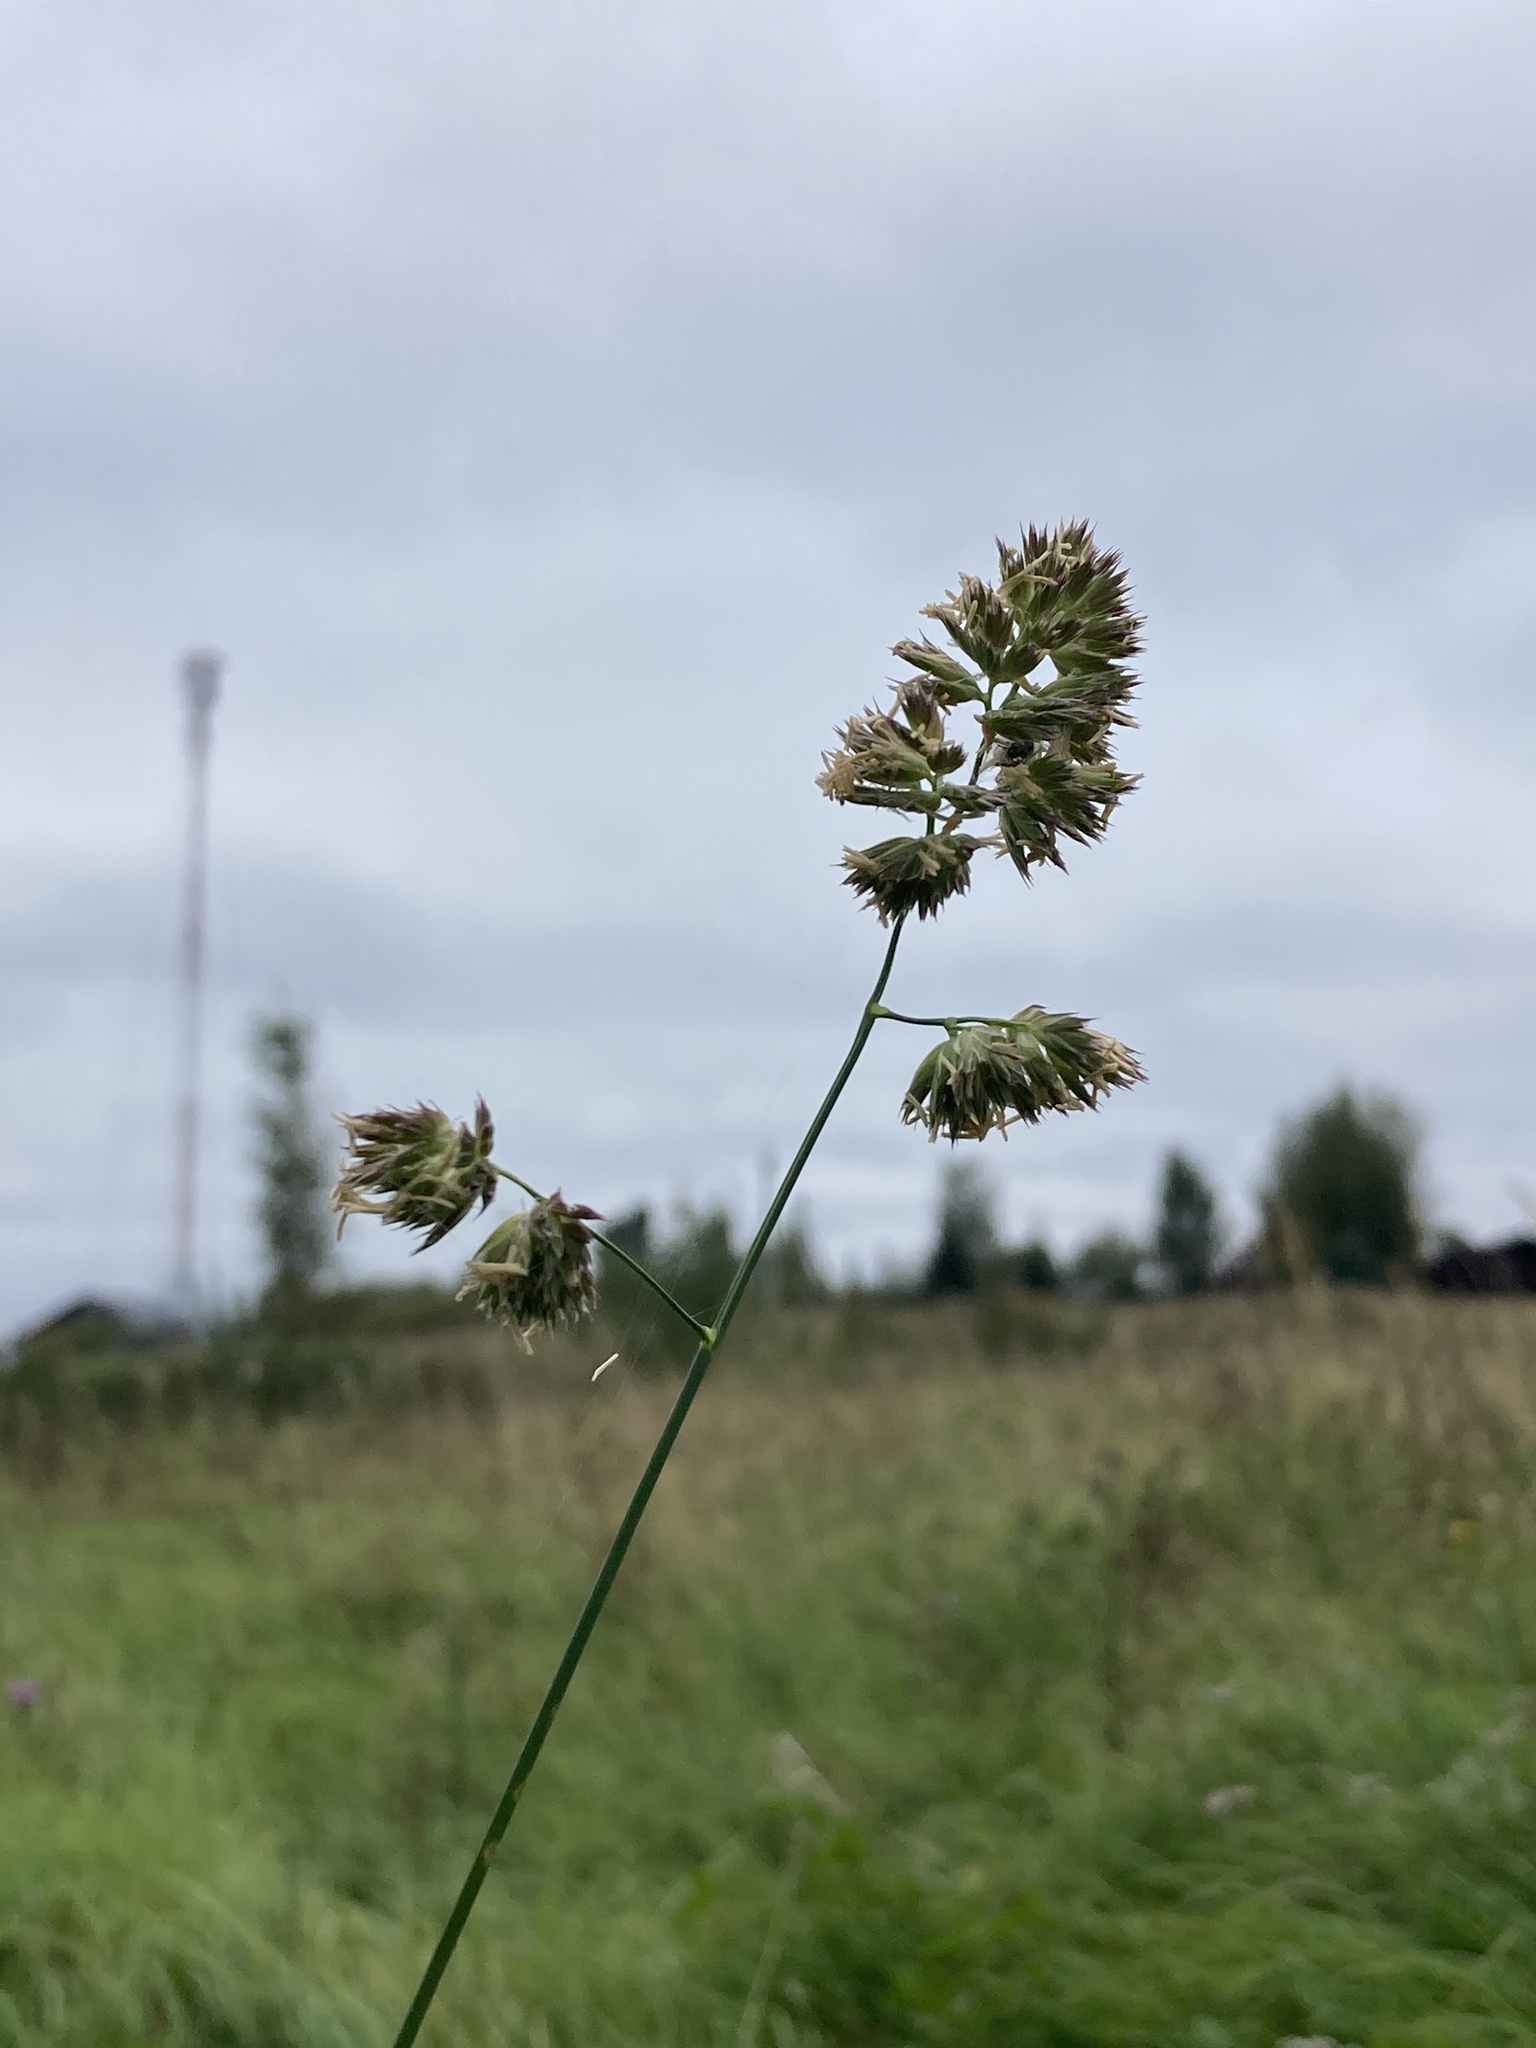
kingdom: Plantae
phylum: Tracheophyta
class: Liliopsida
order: Poales
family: Poaceae
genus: Dactylis
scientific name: Dactylis glomerata
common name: Orchardgrass
